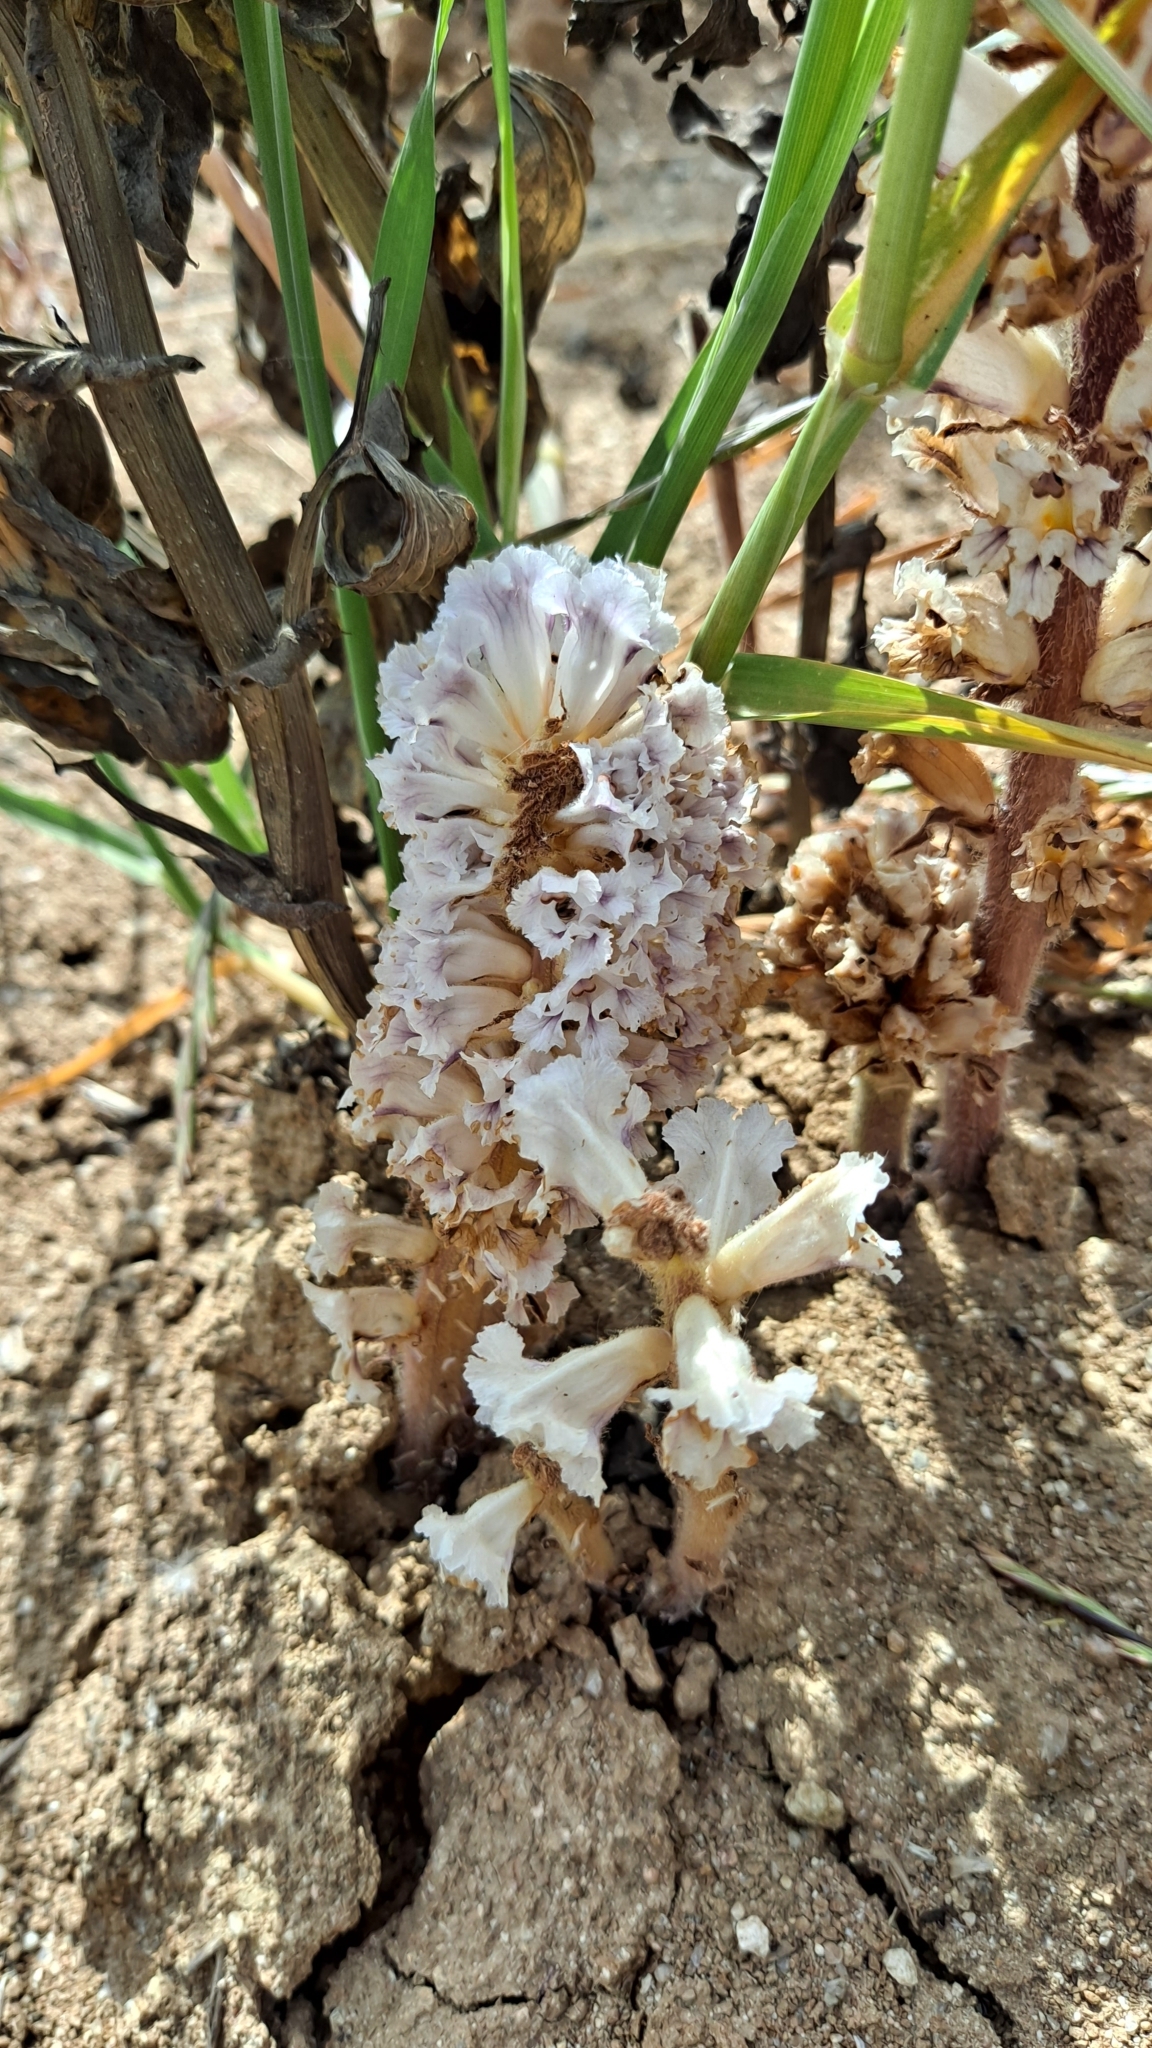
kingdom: Plantae
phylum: Tracheophyta
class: Magnoliopsida
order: Lamiales
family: Orobanchaceae
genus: Orobanche
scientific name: Orobanche crenata
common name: Bean broomrape
